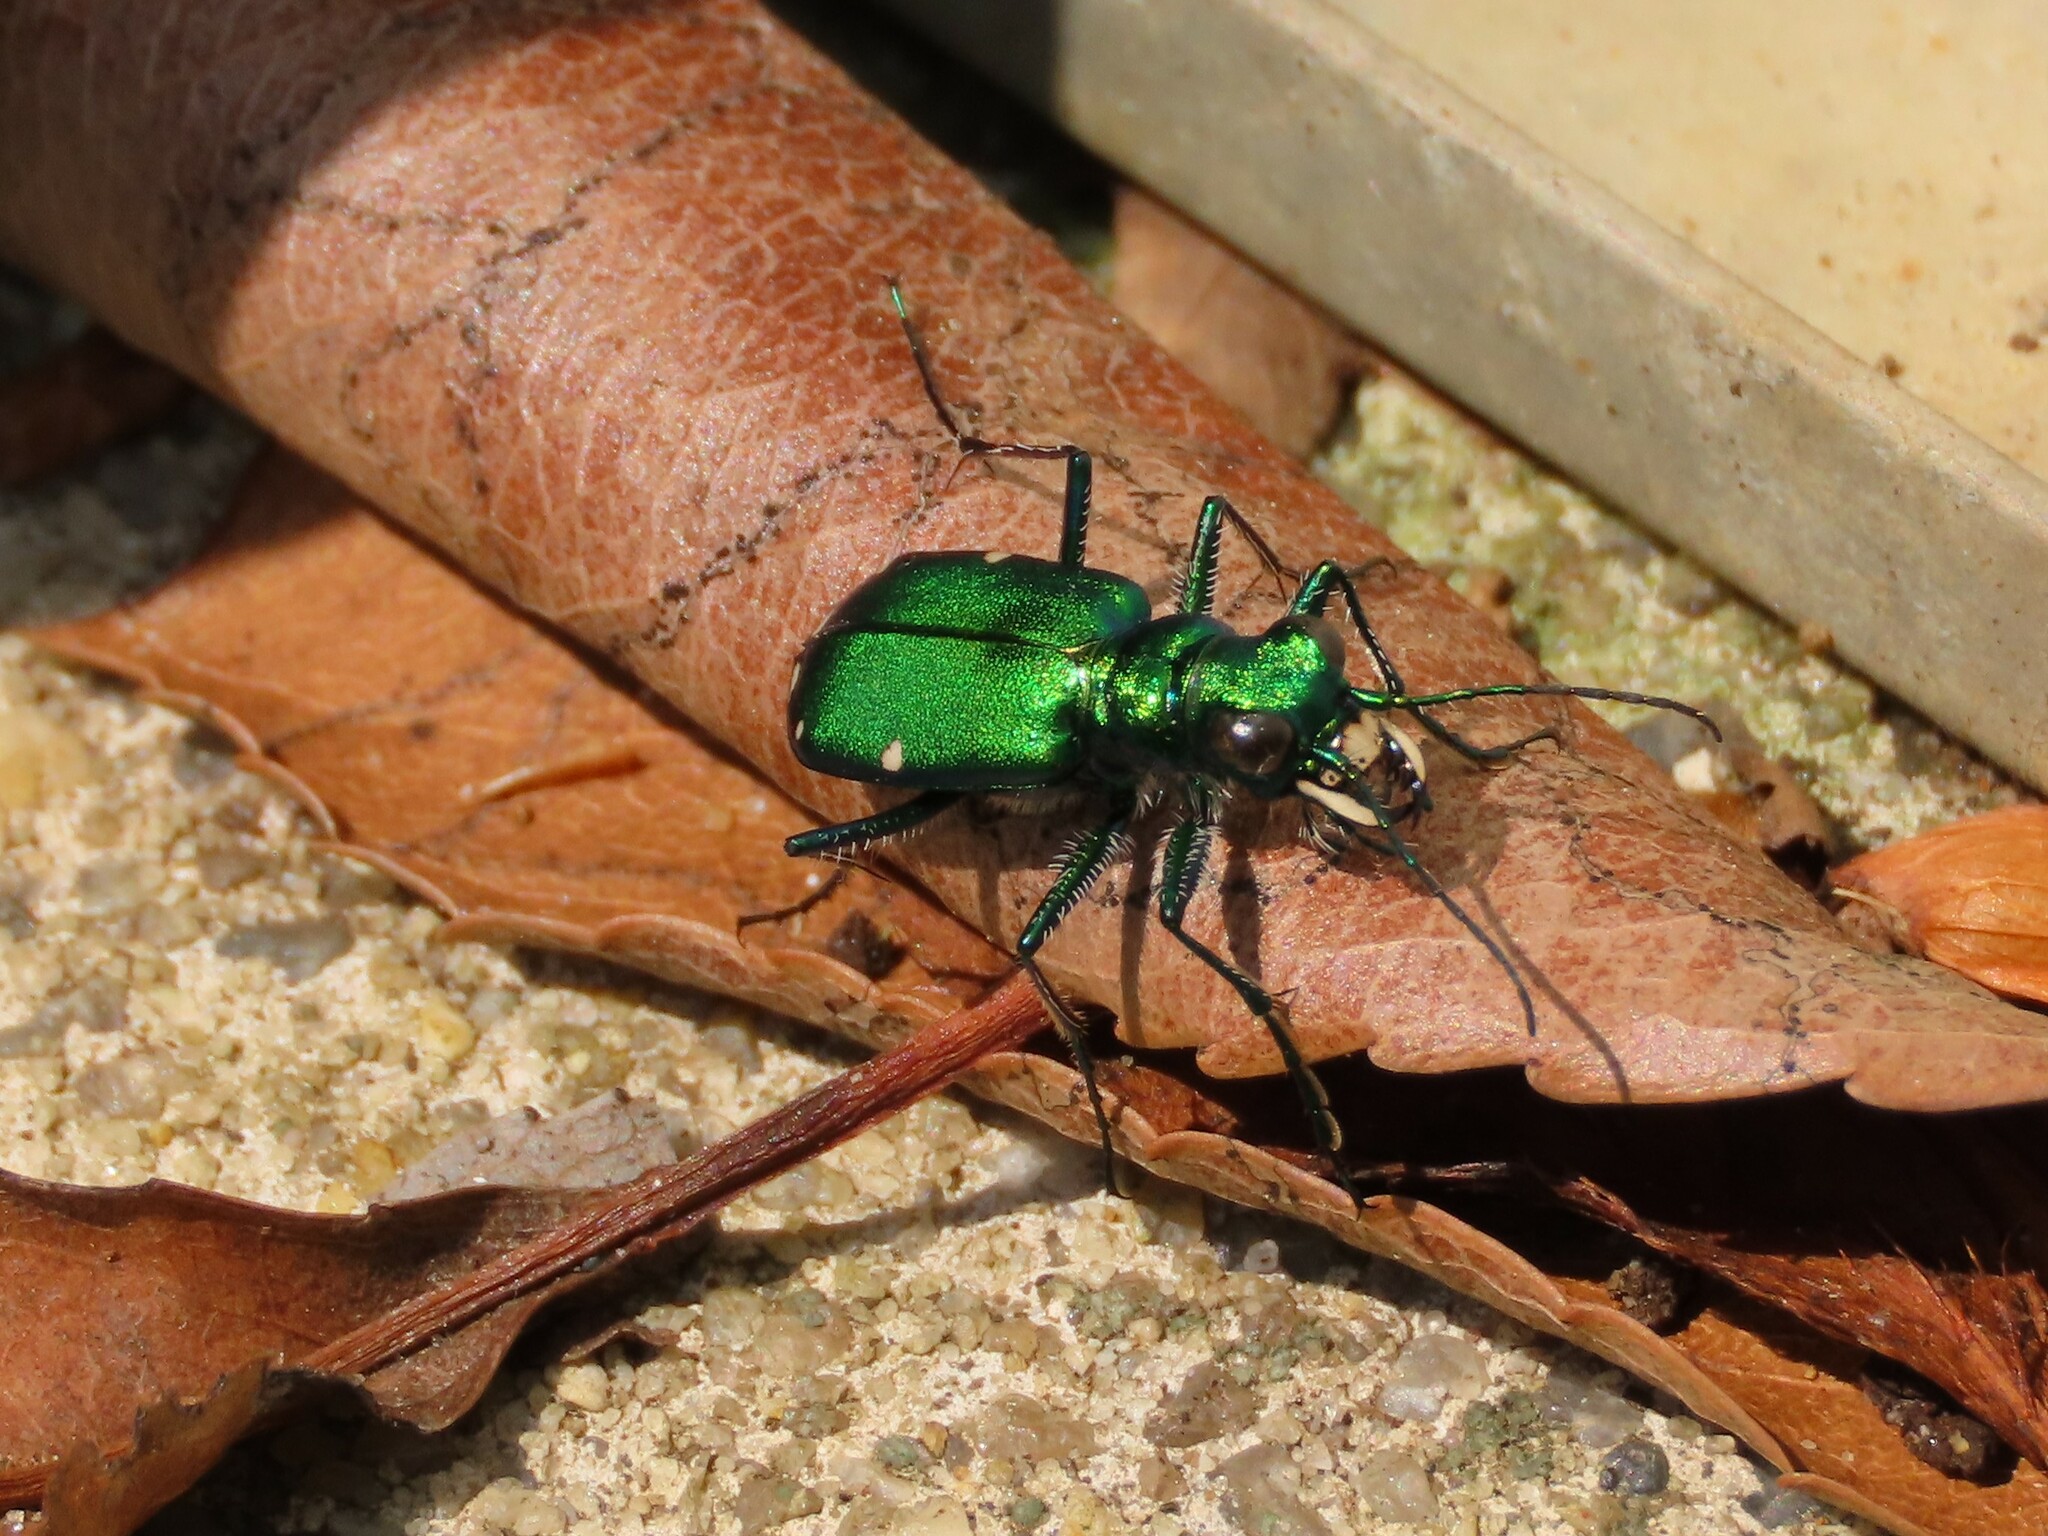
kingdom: Animalia
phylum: Arthropoda
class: Insecta
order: Coleoptera
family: Carabidae
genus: Cicindela
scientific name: Cicindela sexguttata
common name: Six-spotted tiger beetle
